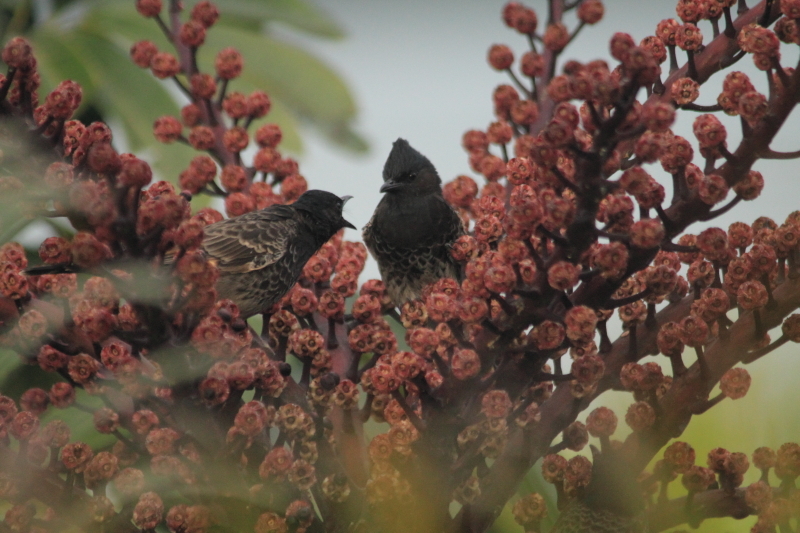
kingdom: Animalia
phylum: Chordata
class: Aves
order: Passeriformes
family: Pycnonotidae
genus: Pycnonotus
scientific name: Pycnonotus cafer
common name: Red-vented bulbul
